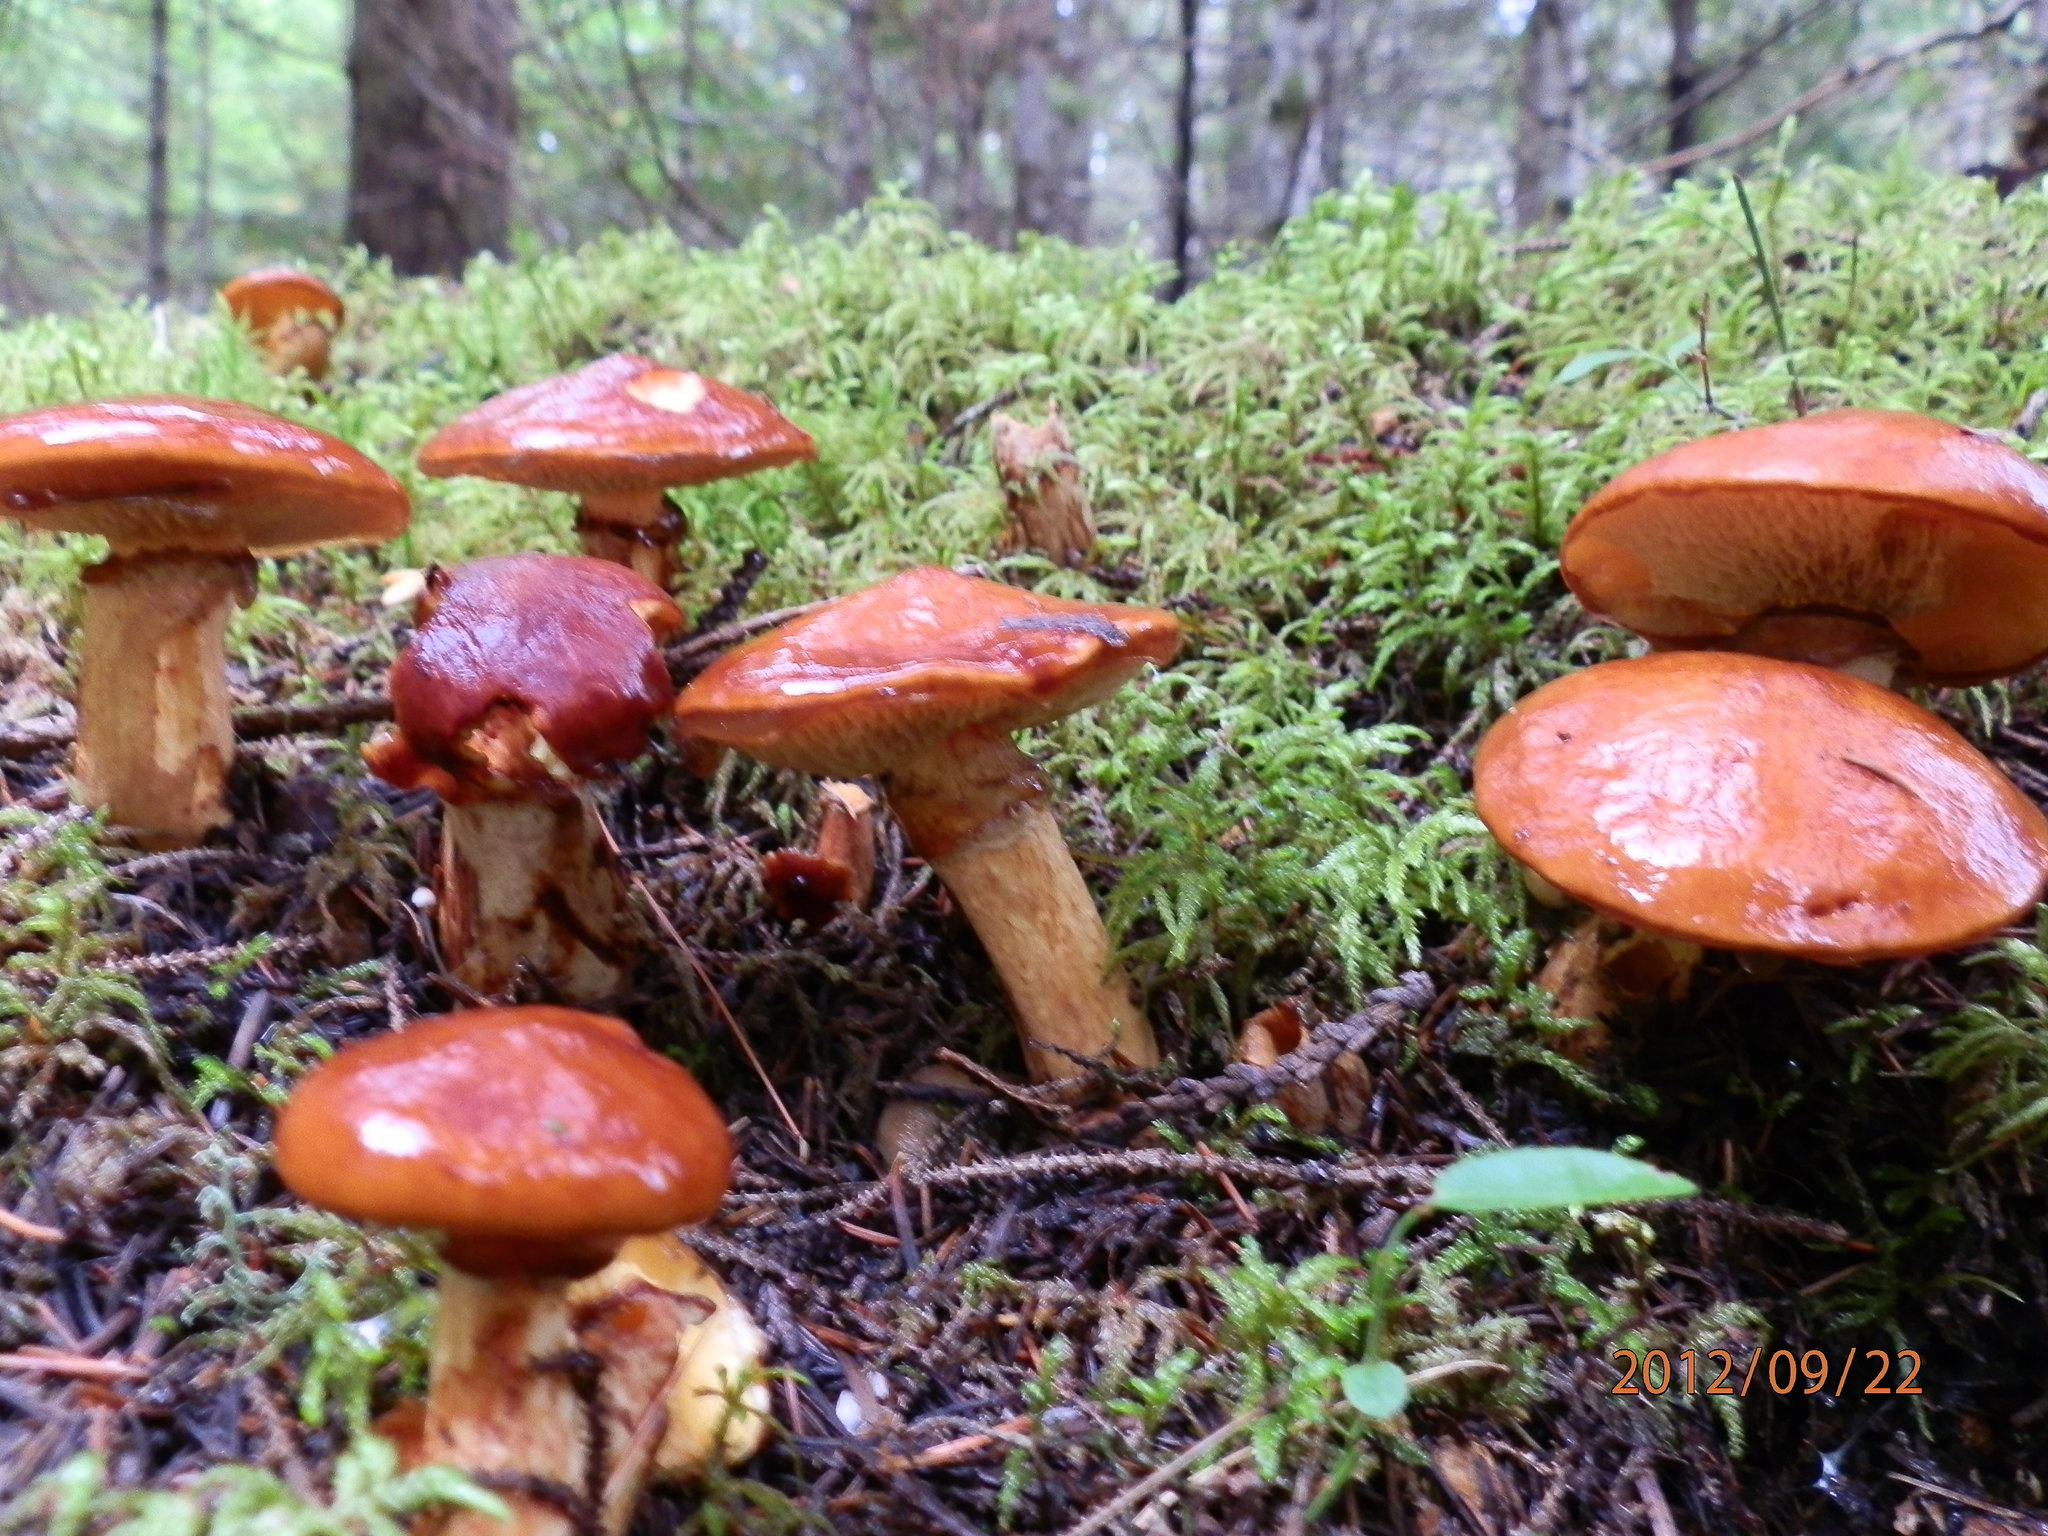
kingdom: Fungi
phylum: Basidiomycota
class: Agaricomycetes
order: Boletales
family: Suillaceae
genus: Boletinus
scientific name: Boletinus glandulosus
